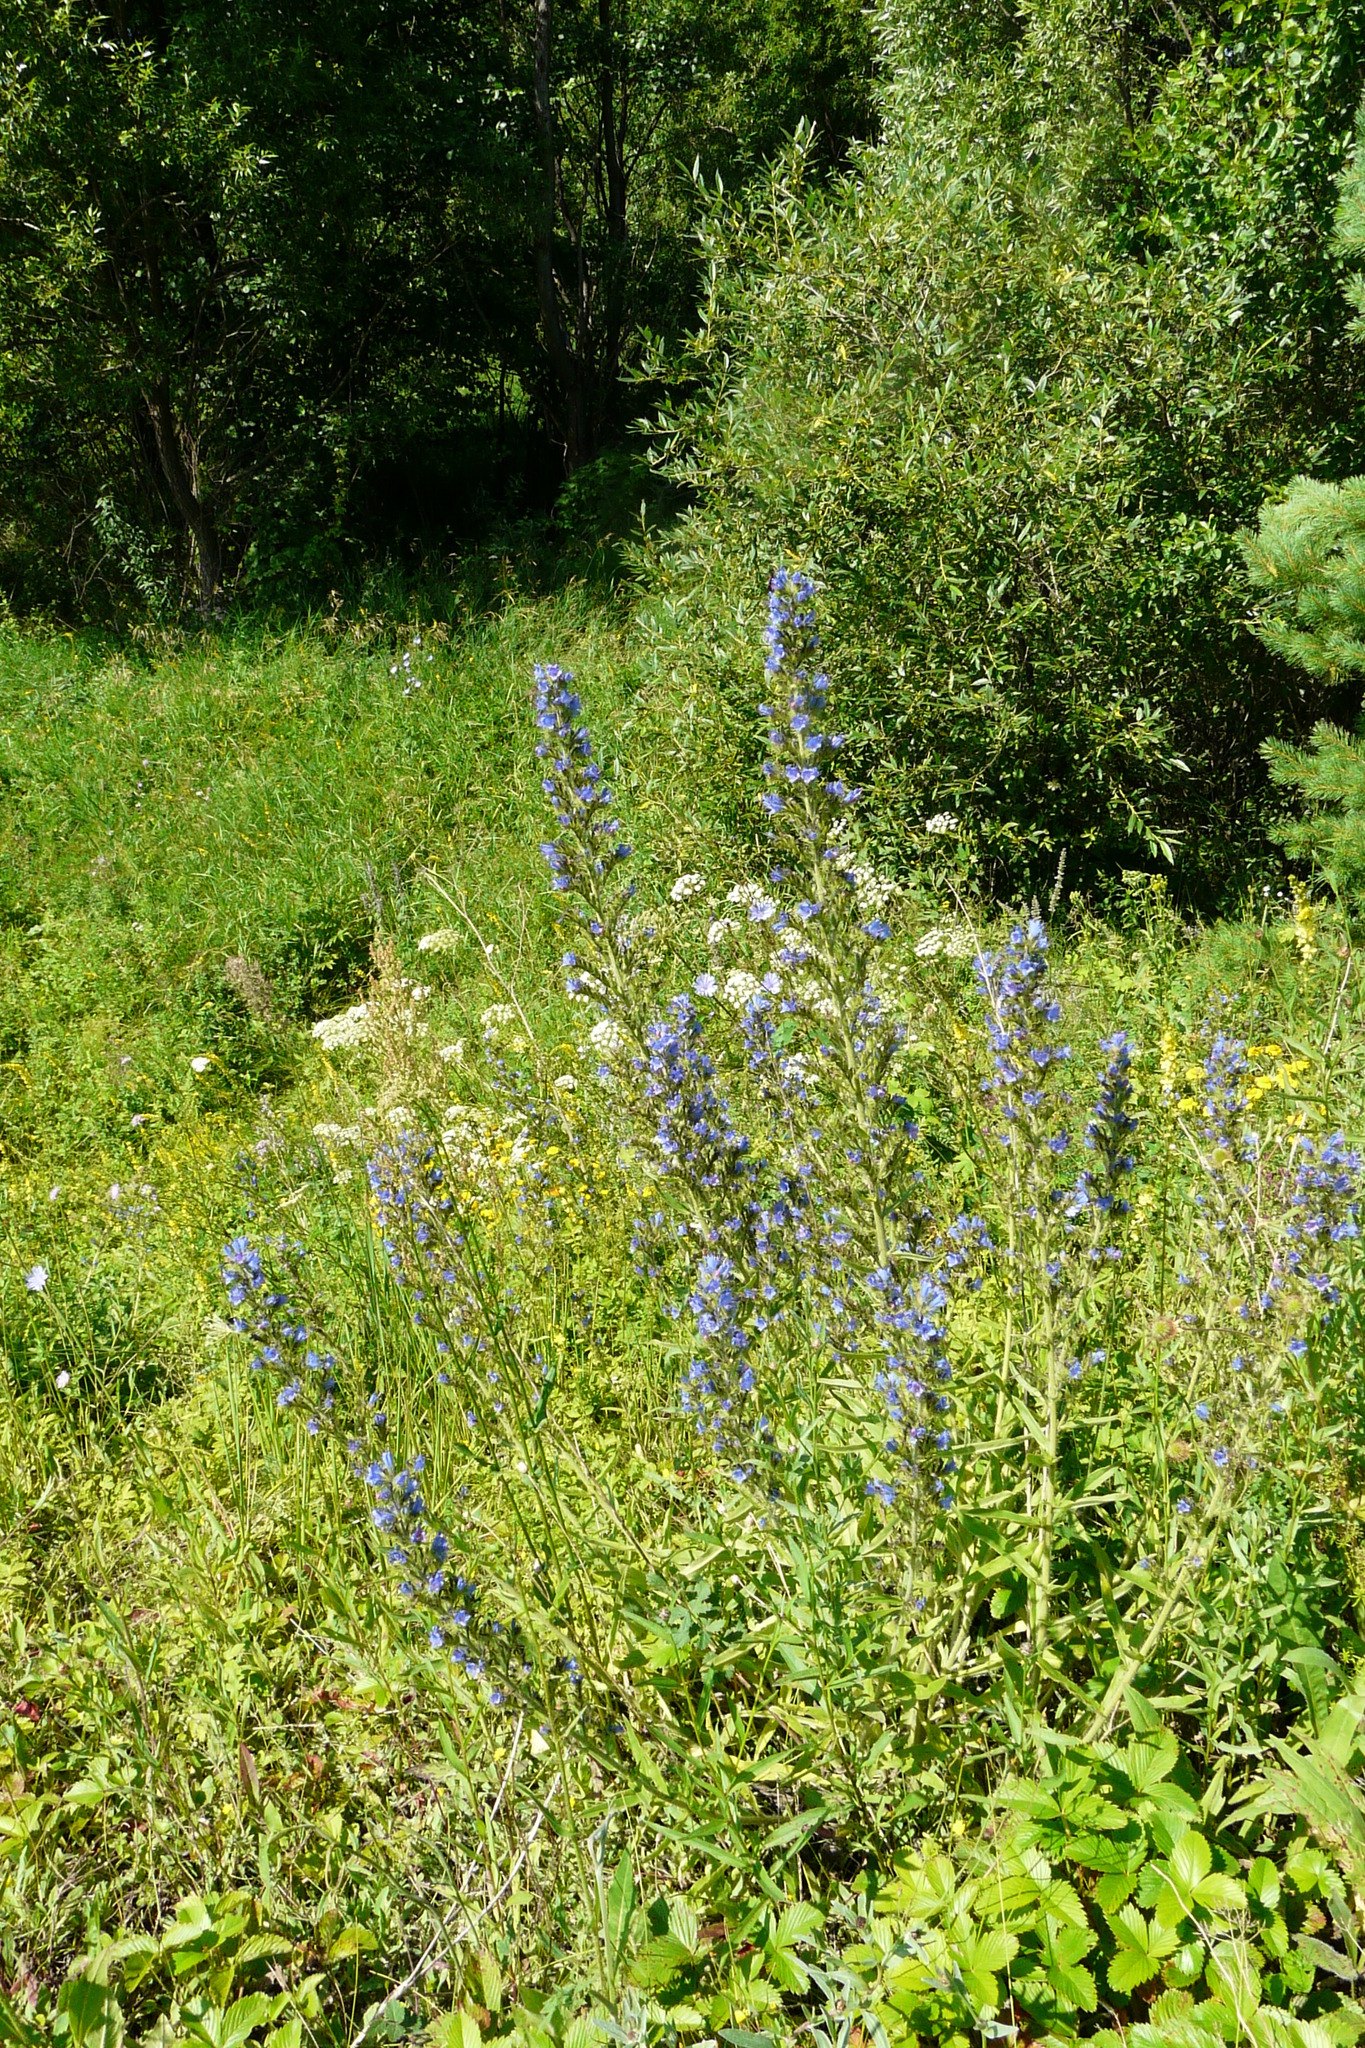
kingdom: Plantae
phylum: Tracheophyta
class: Magnoliopsida
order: Boraginales
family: Boraginaceae
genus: Echium
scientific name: Echium vulgare
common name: Common viper's bugloss
